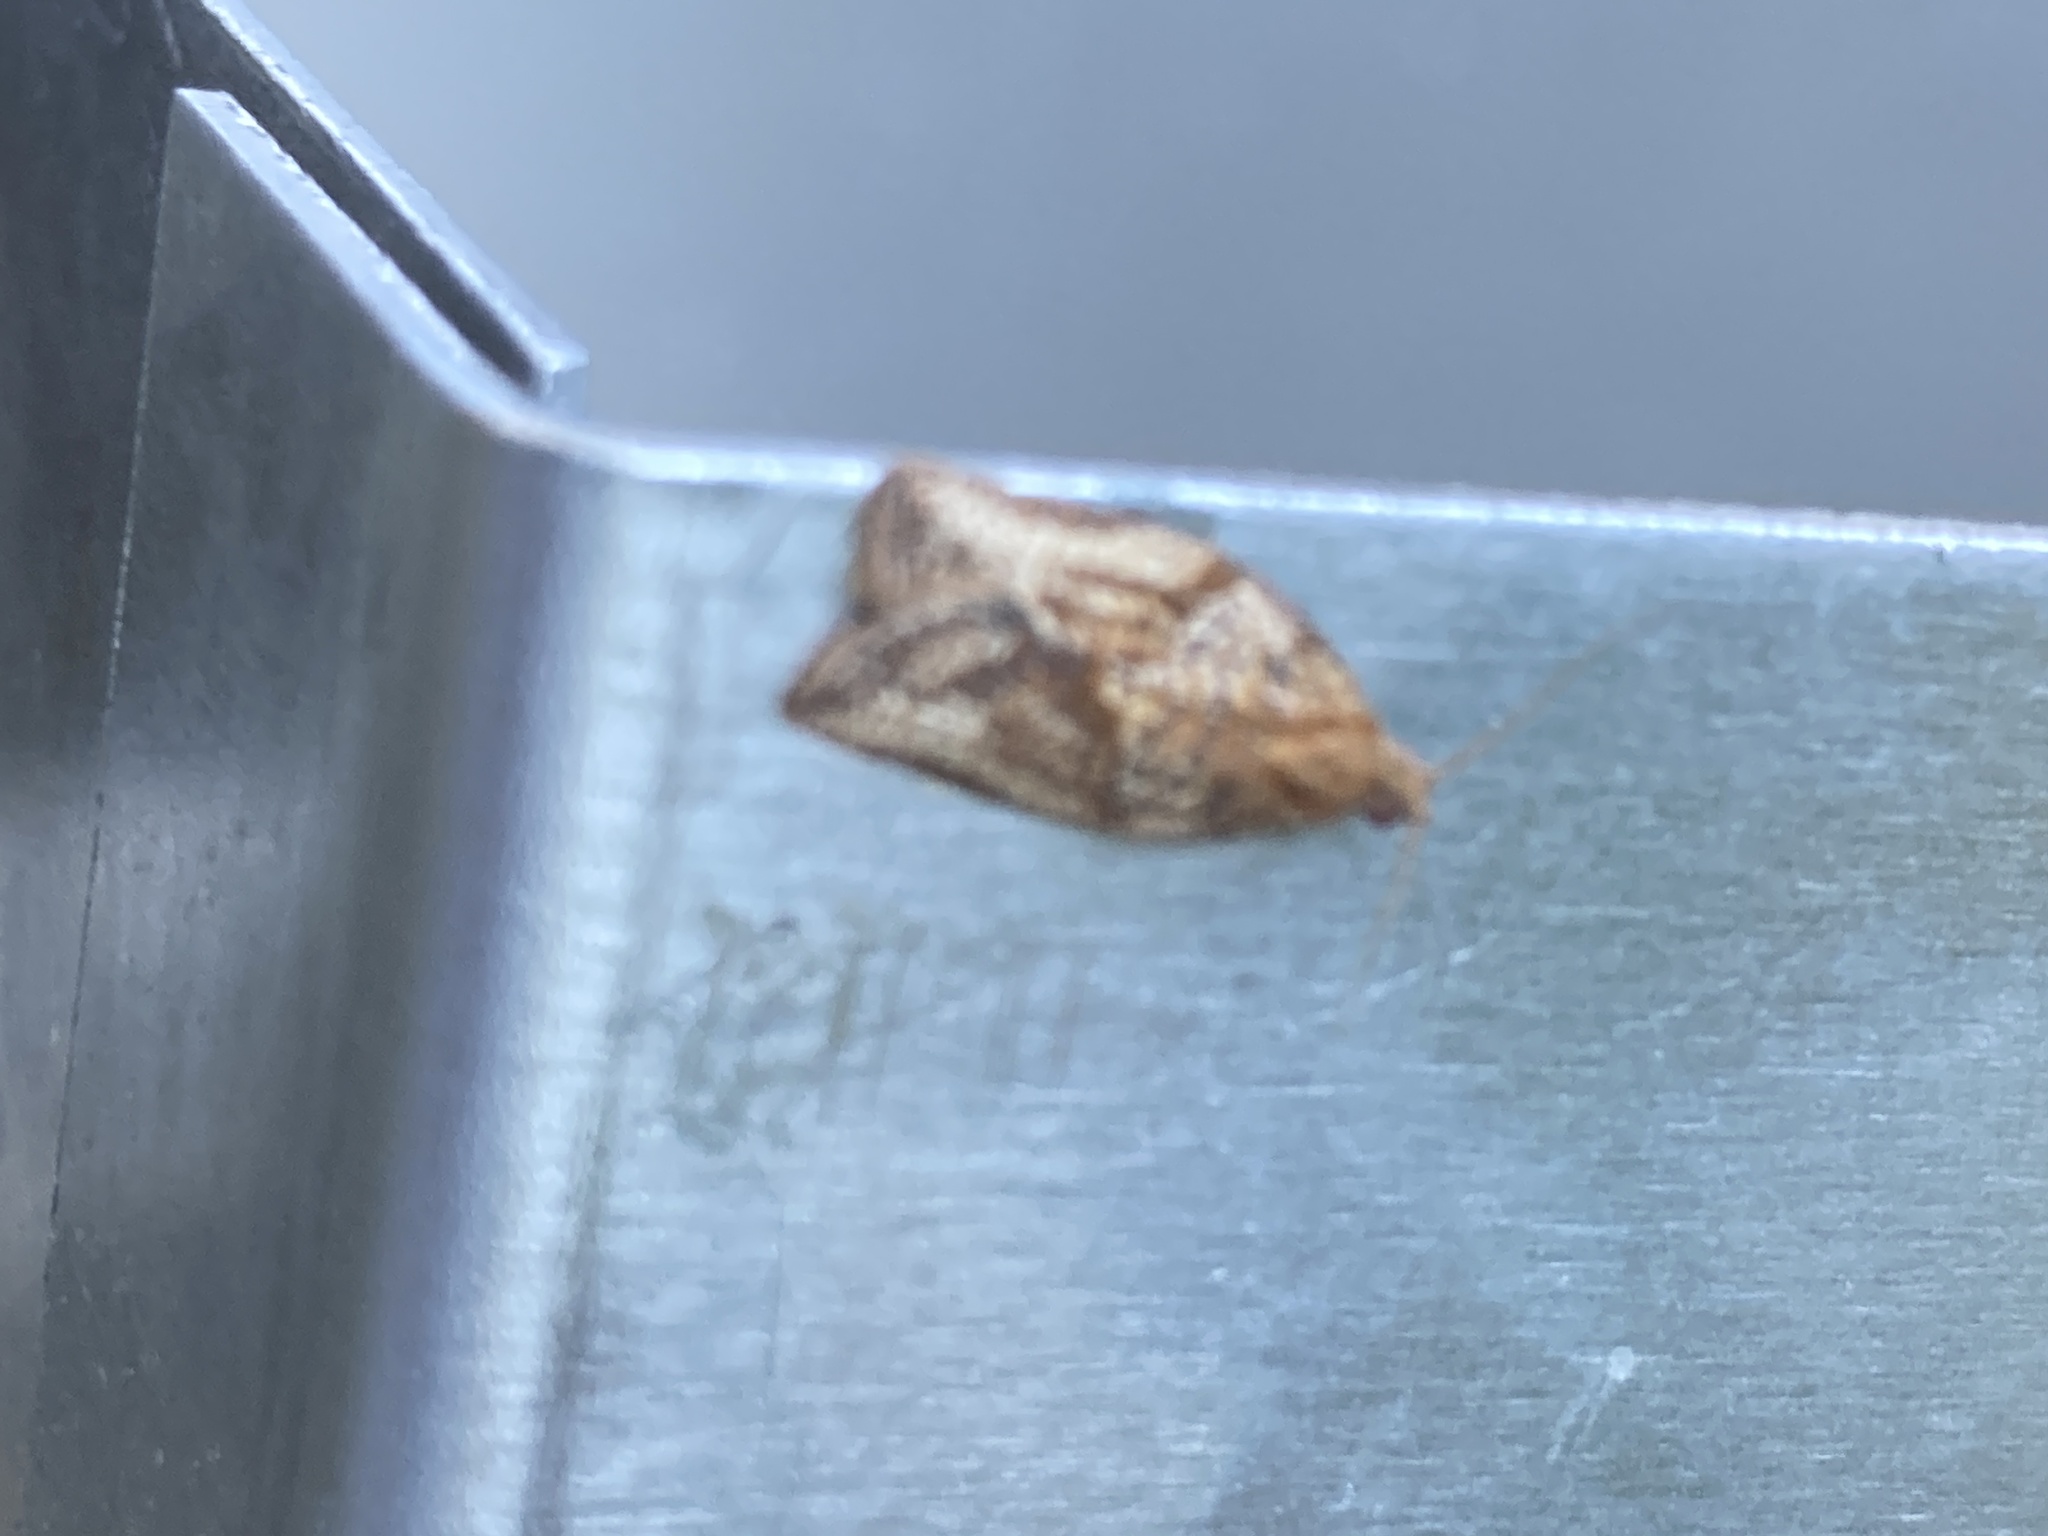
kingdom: Animalia
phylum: Arthropoda
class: Insecta
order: Lepidoptera
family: Tortricidae
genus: Epiphyas
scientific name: Epiphyas postvittana
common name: Light brown apple moth
